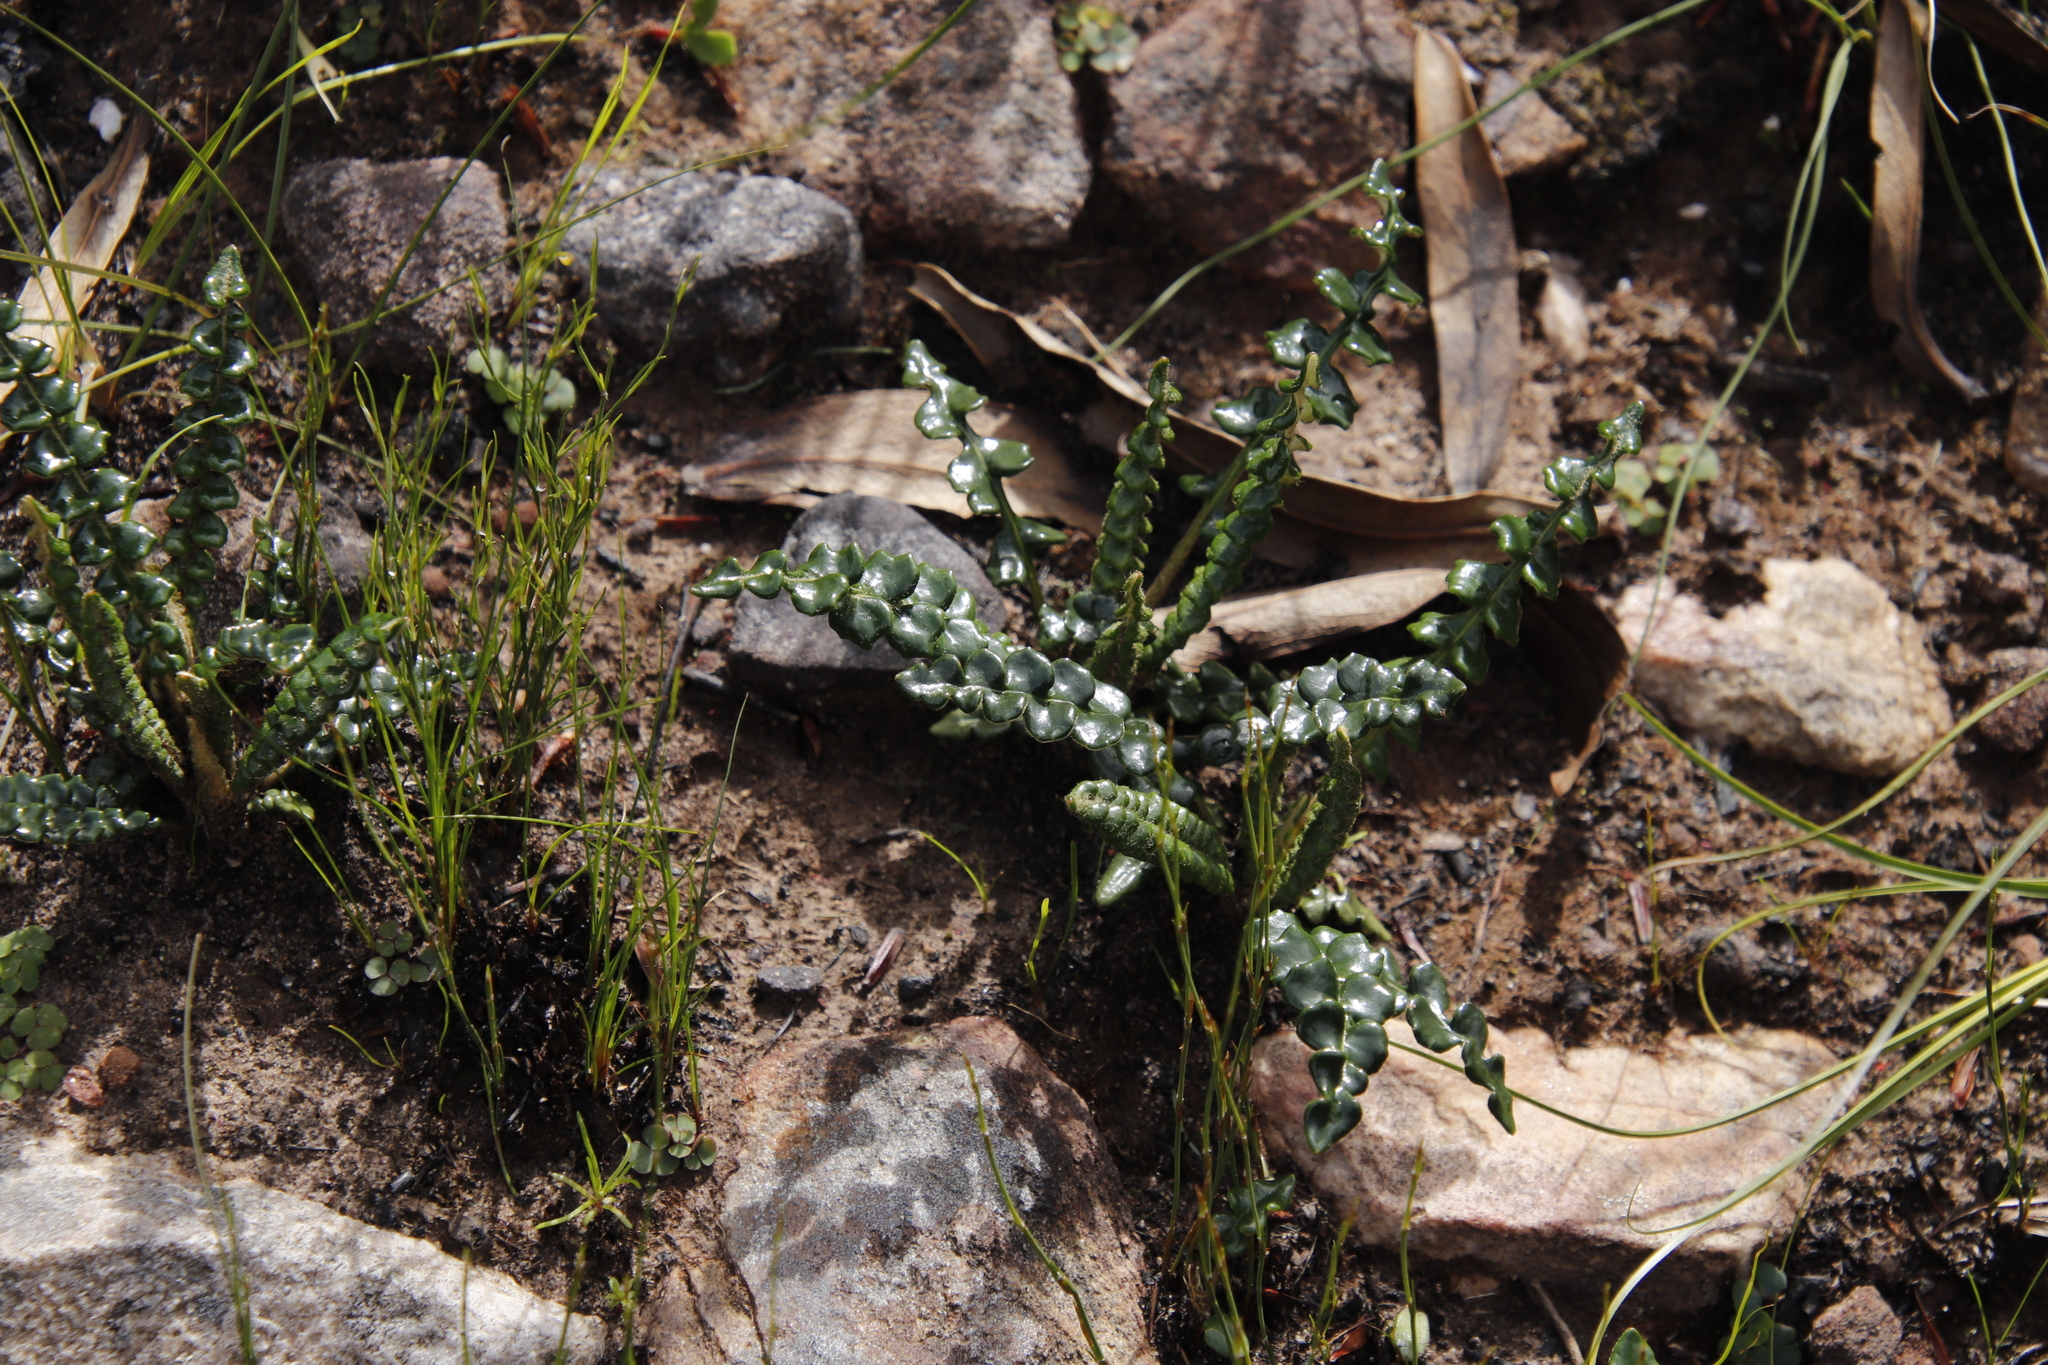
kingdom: Plantae
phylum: Tracheophyta
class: Magnoliopsida
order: Asterales
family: Asteraceae
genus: Gerbera
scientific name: Gerbera linnaei
